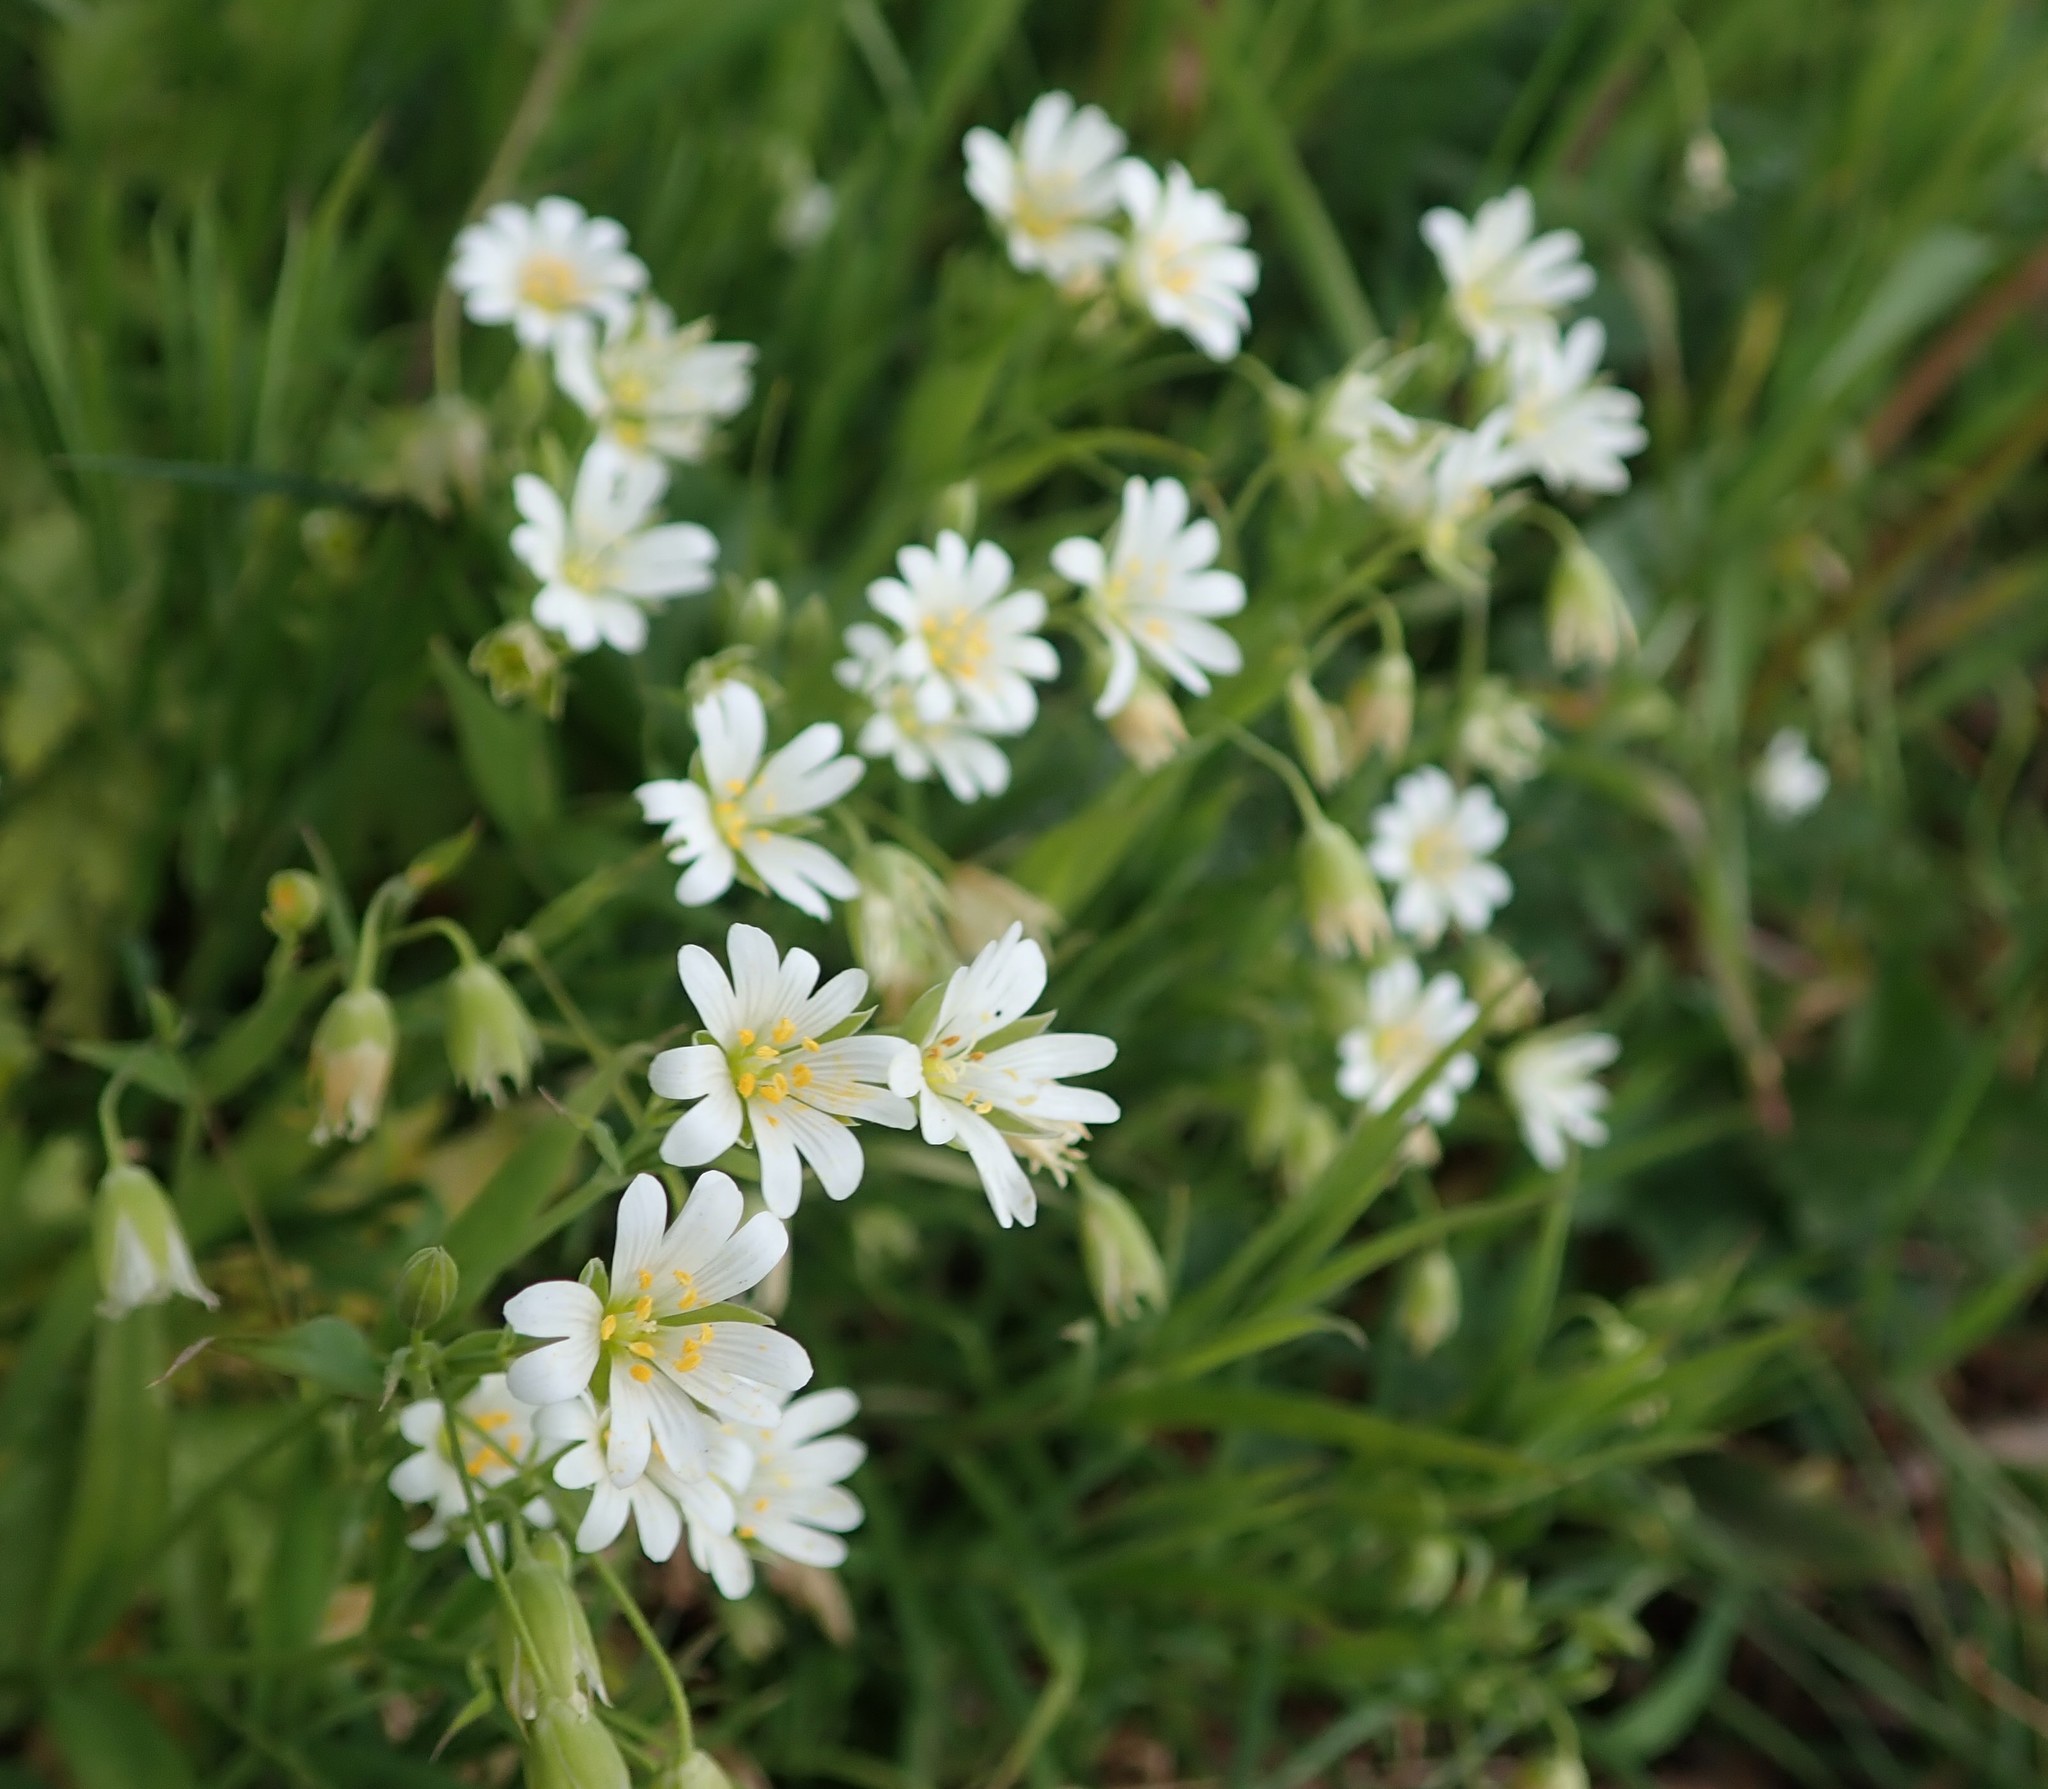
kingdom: Plantae
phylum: Tracheophyta
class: Magnoliopsida
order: Caryophyllales
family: Caryophyllaceae
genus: Rabelera
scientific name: Rabelera holostea
